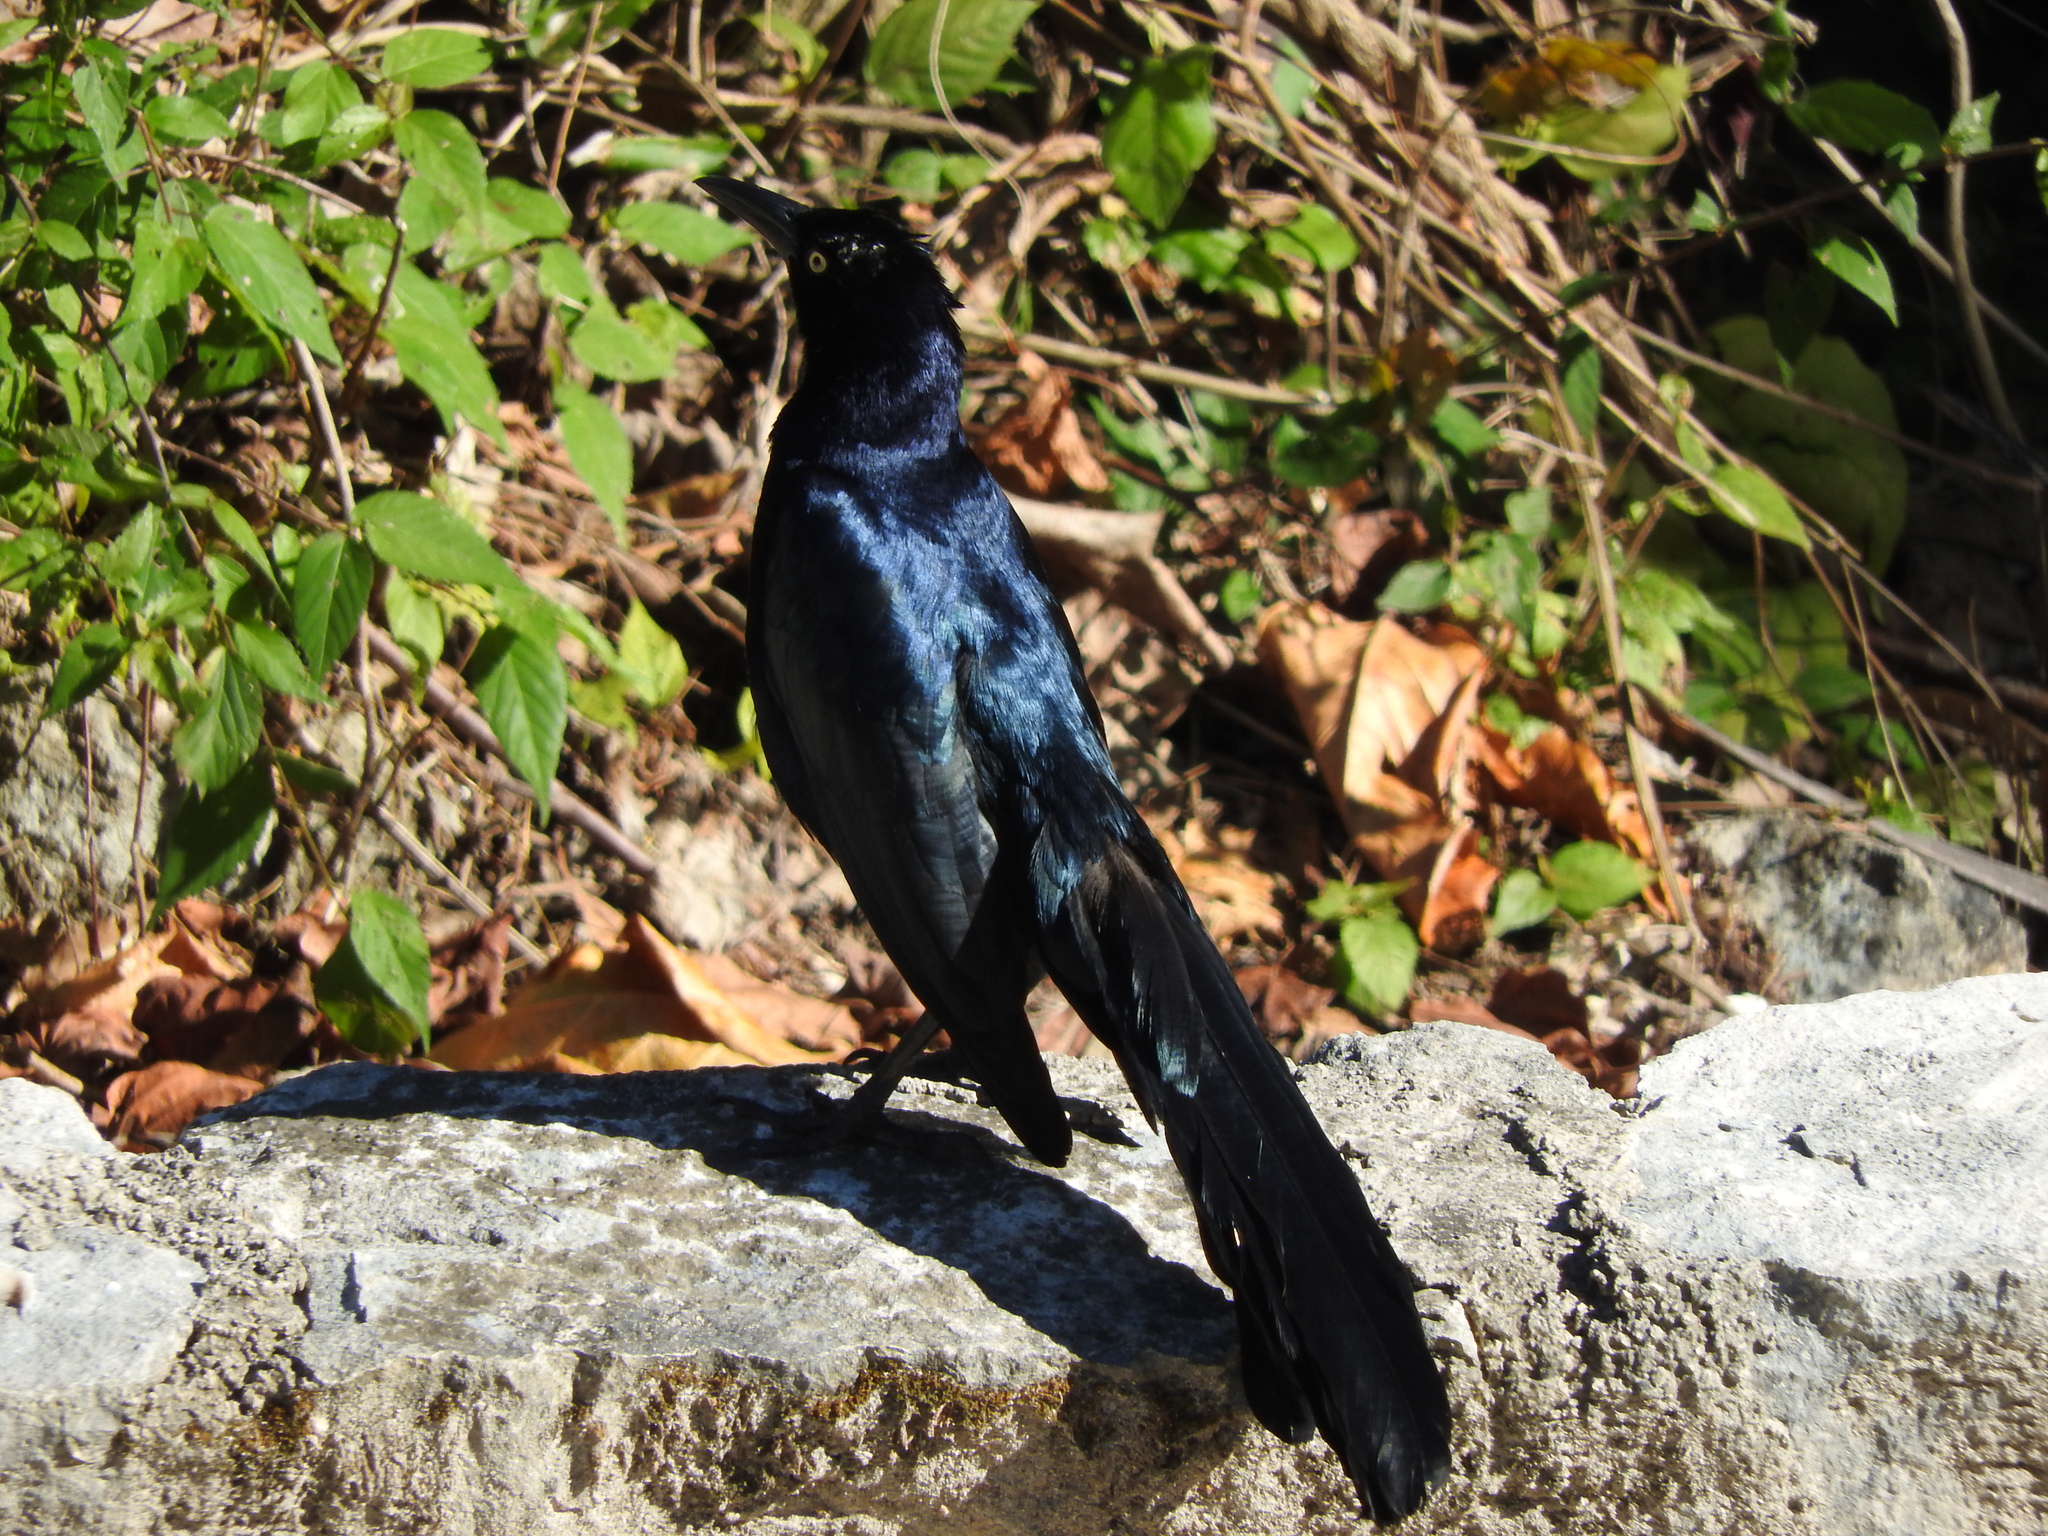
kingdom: Animalia
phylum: Chordata
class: Aves
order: Passeriformes
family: Icteridae
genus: Quiscalus
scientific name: Quiscalus mexicanus
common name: Great-tailed grackle
